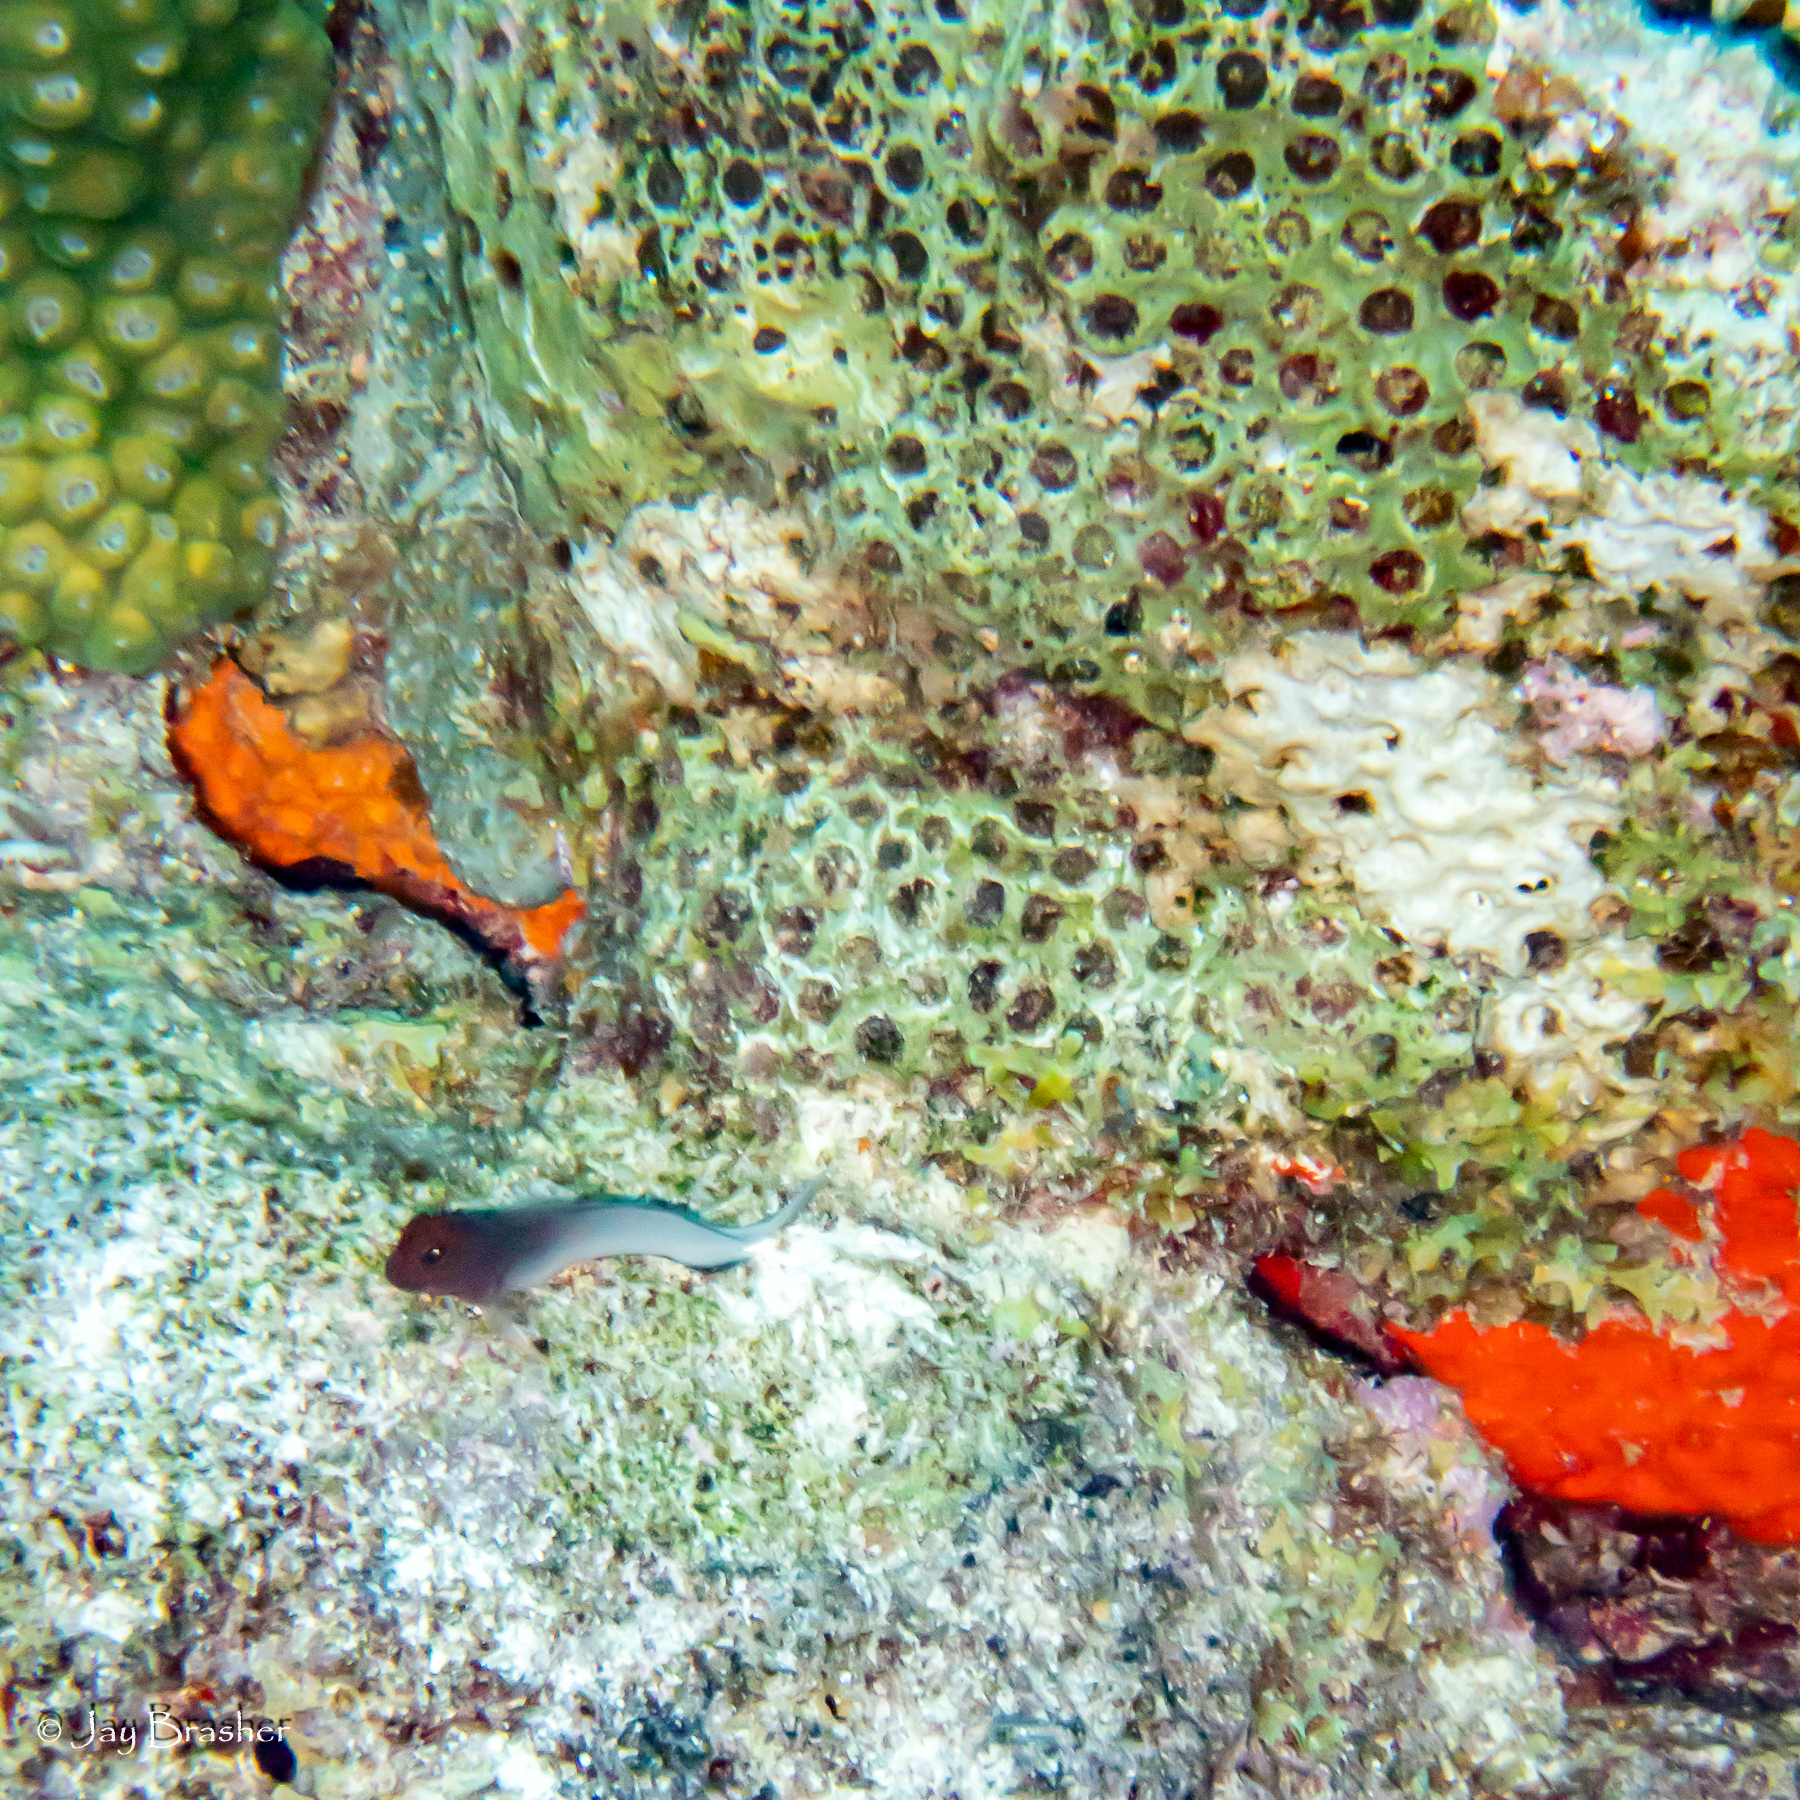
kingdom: Animalia
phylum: Chordata
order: Perciformes
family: Blenniidae
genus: Ophioblennius
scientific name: Ophioblennius macclurei
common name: Redlip blenny
